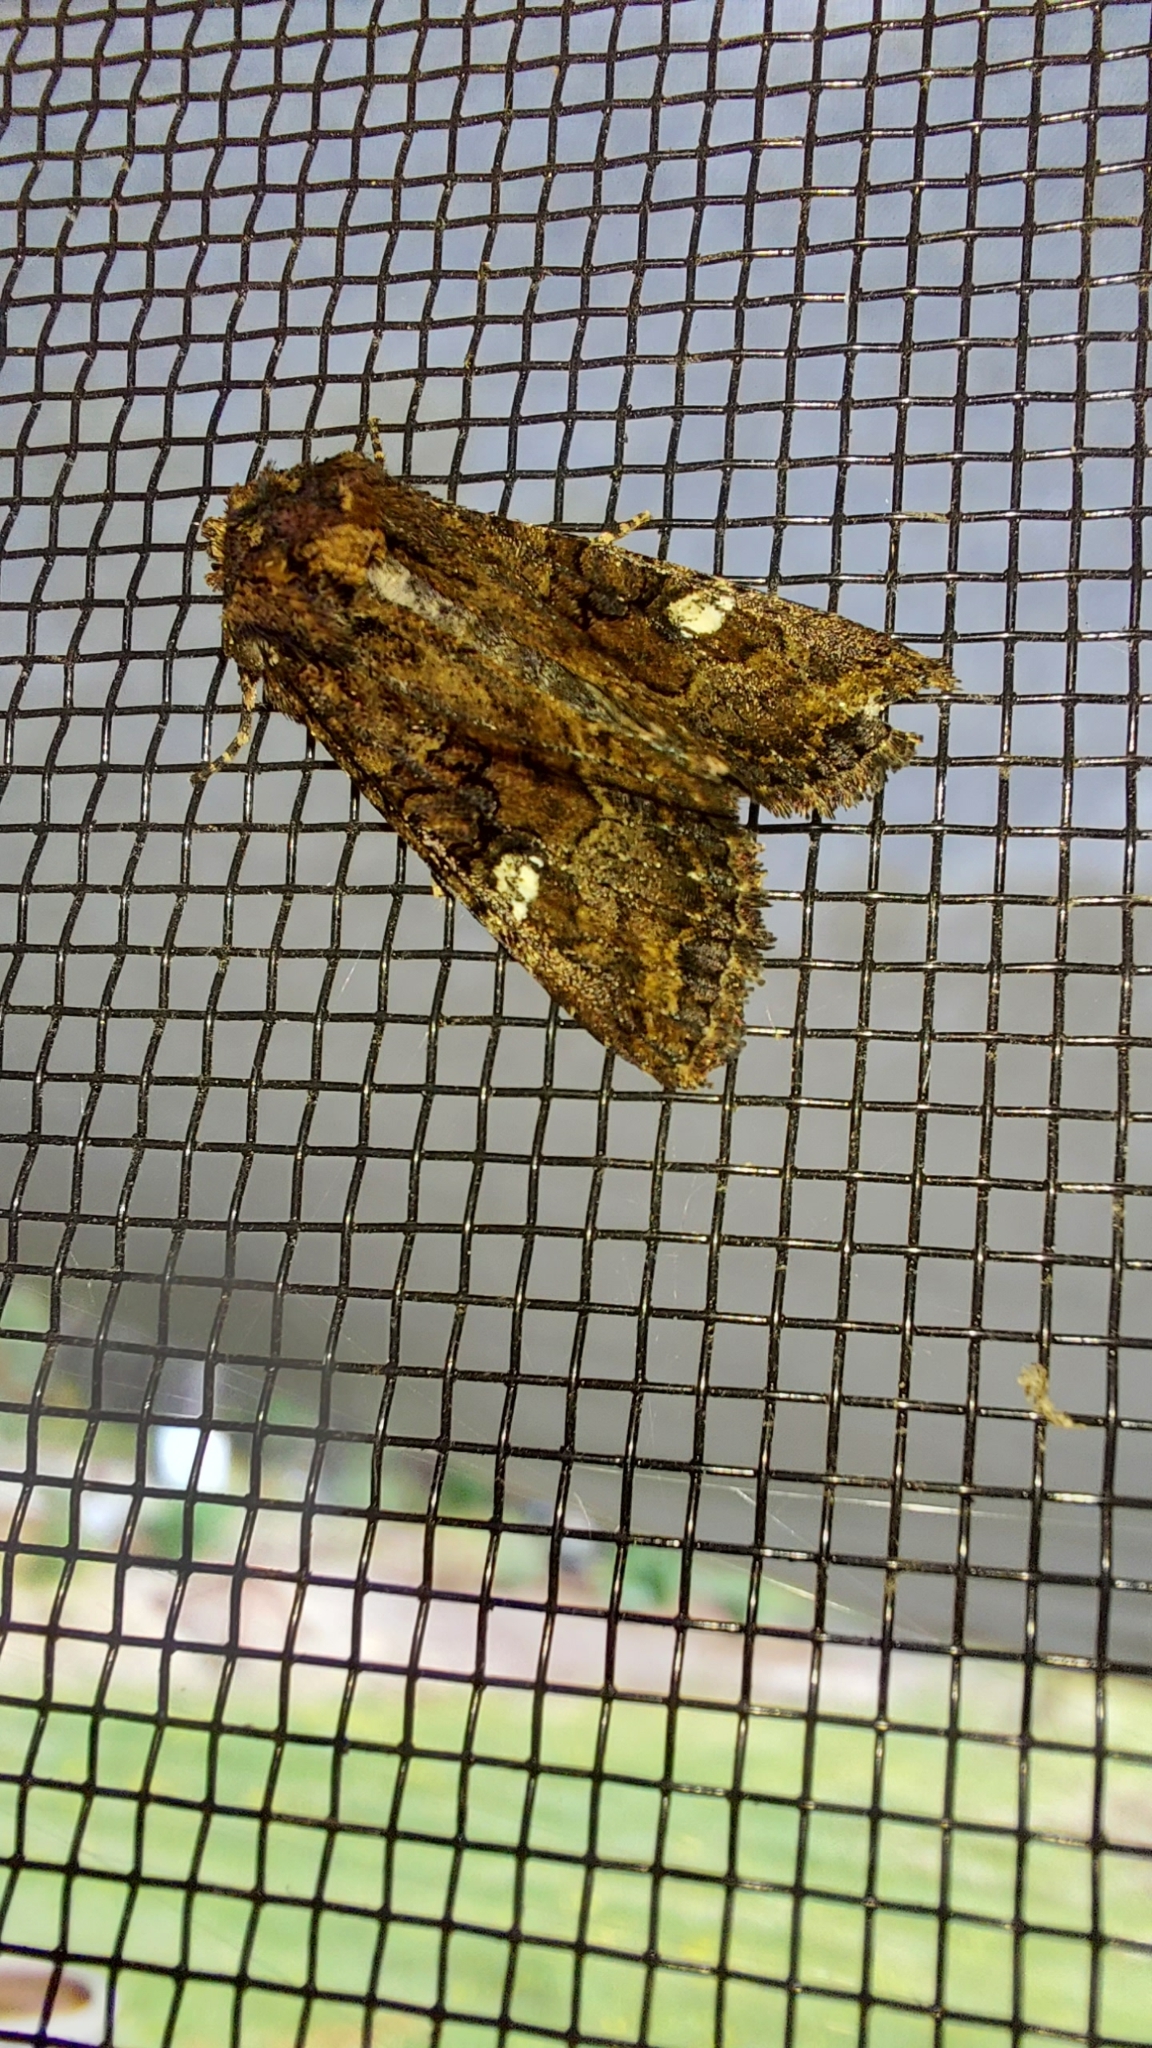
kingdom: Animalia
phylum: Arthropoda
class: Insecta
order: Lepidoptera
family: Noctuidae
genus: Neumichtis
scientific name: Neumichtis saliaris
